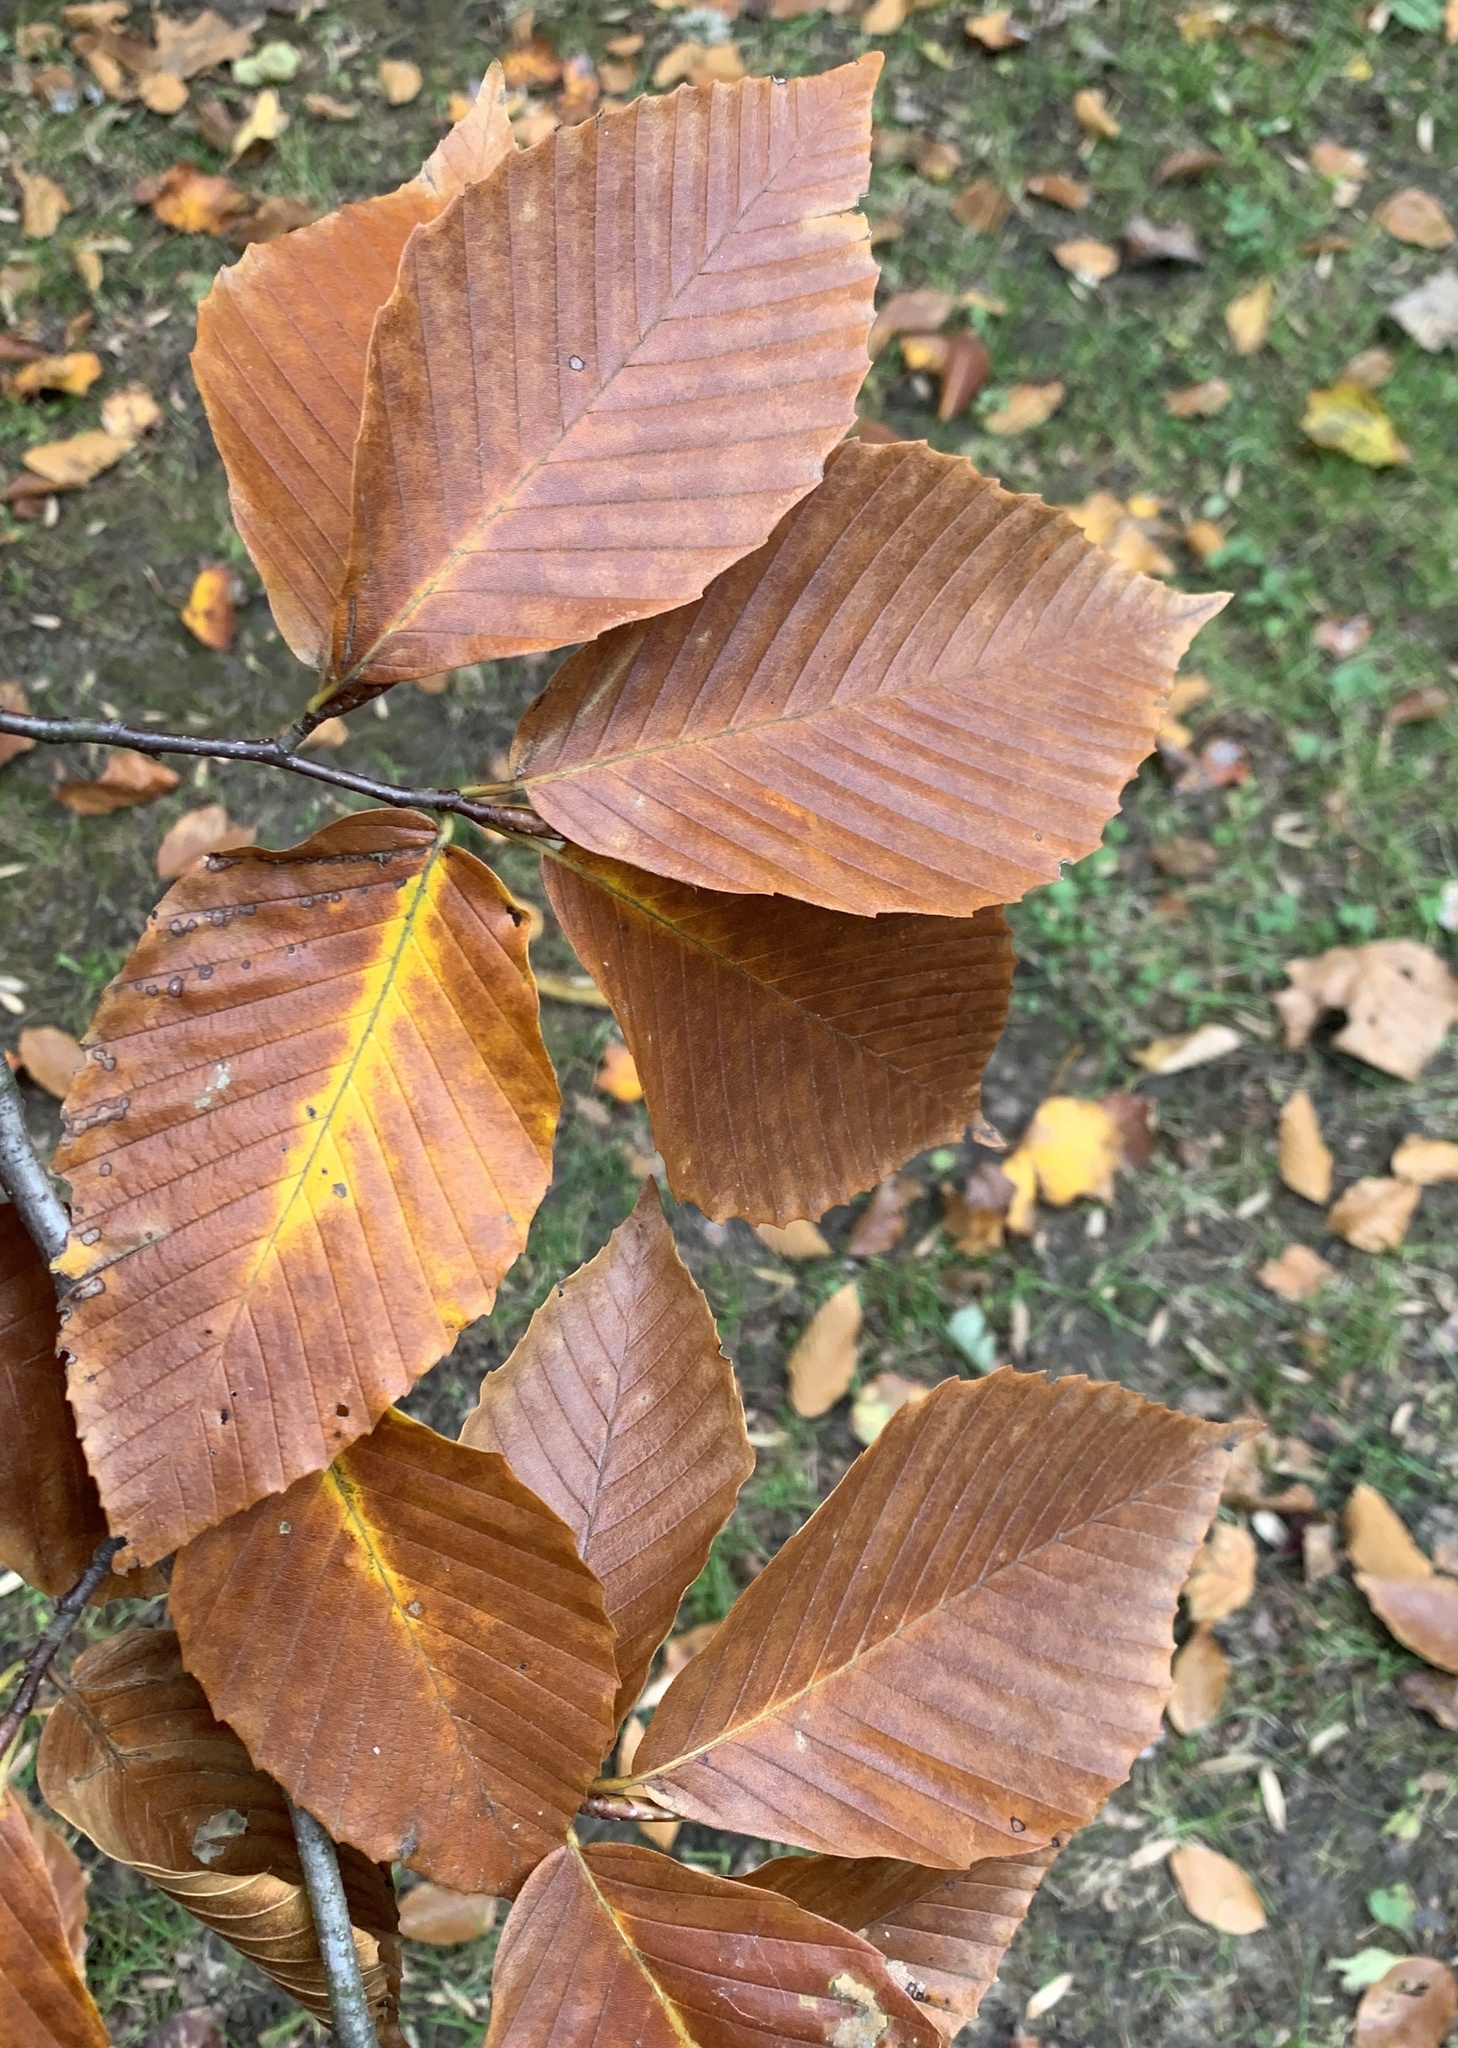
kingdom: Plantae
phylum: Tracheophyta
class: Magnoliopsida
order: Fagales
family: Fagaceae
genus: Fagus
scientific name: Fagus grandifolia
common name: American beech
